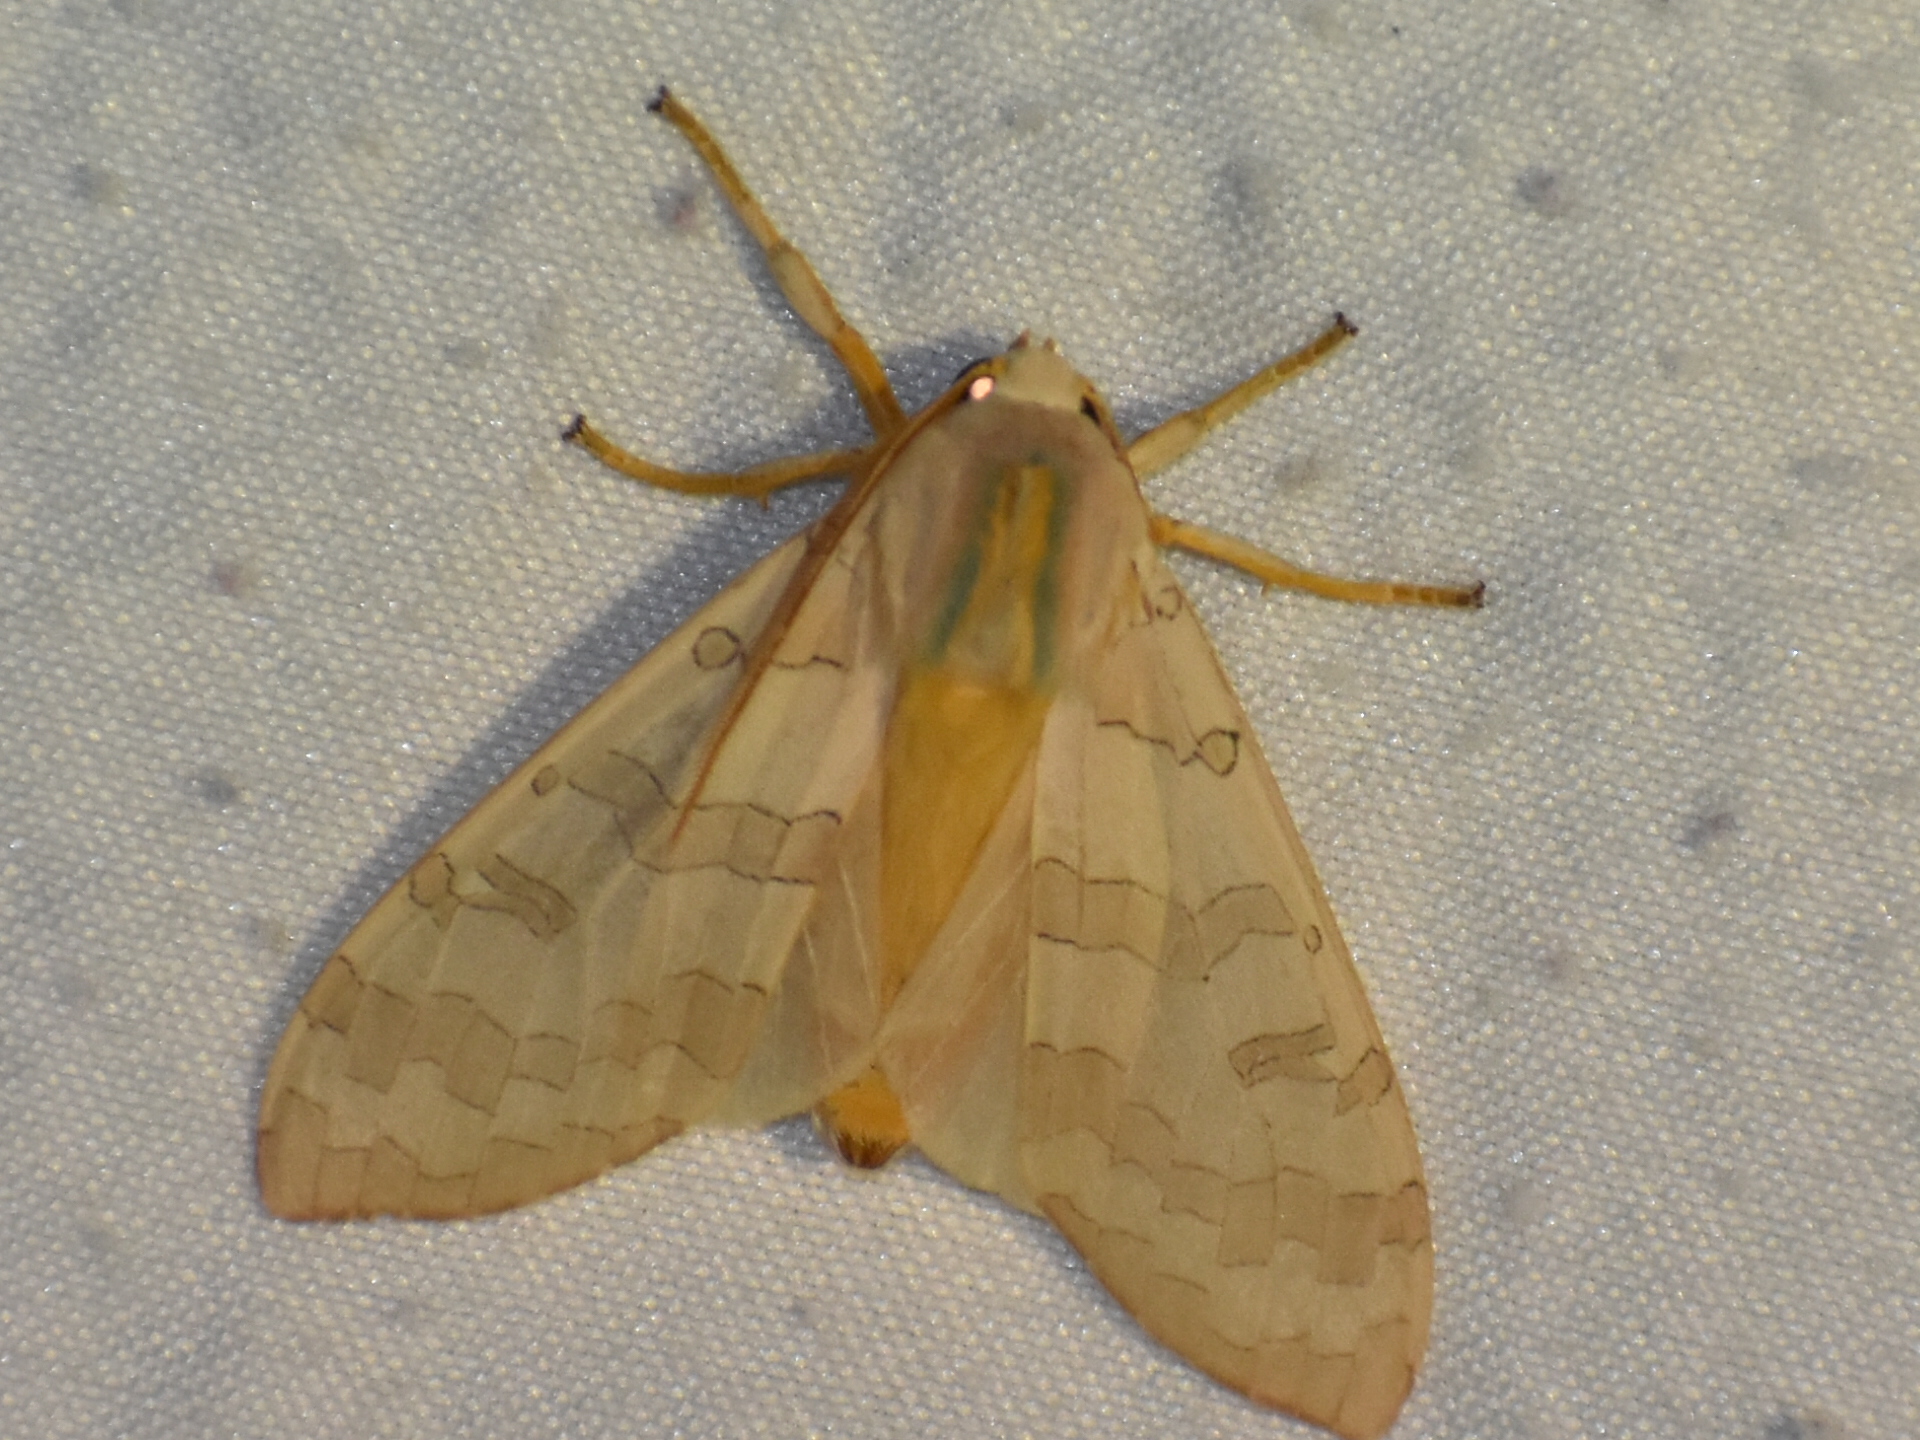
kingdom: Animalia
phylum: Arthropoda
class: Insecta
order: Lepidoptera
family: Erebidae
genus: Halysidota
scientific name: Halysidota
